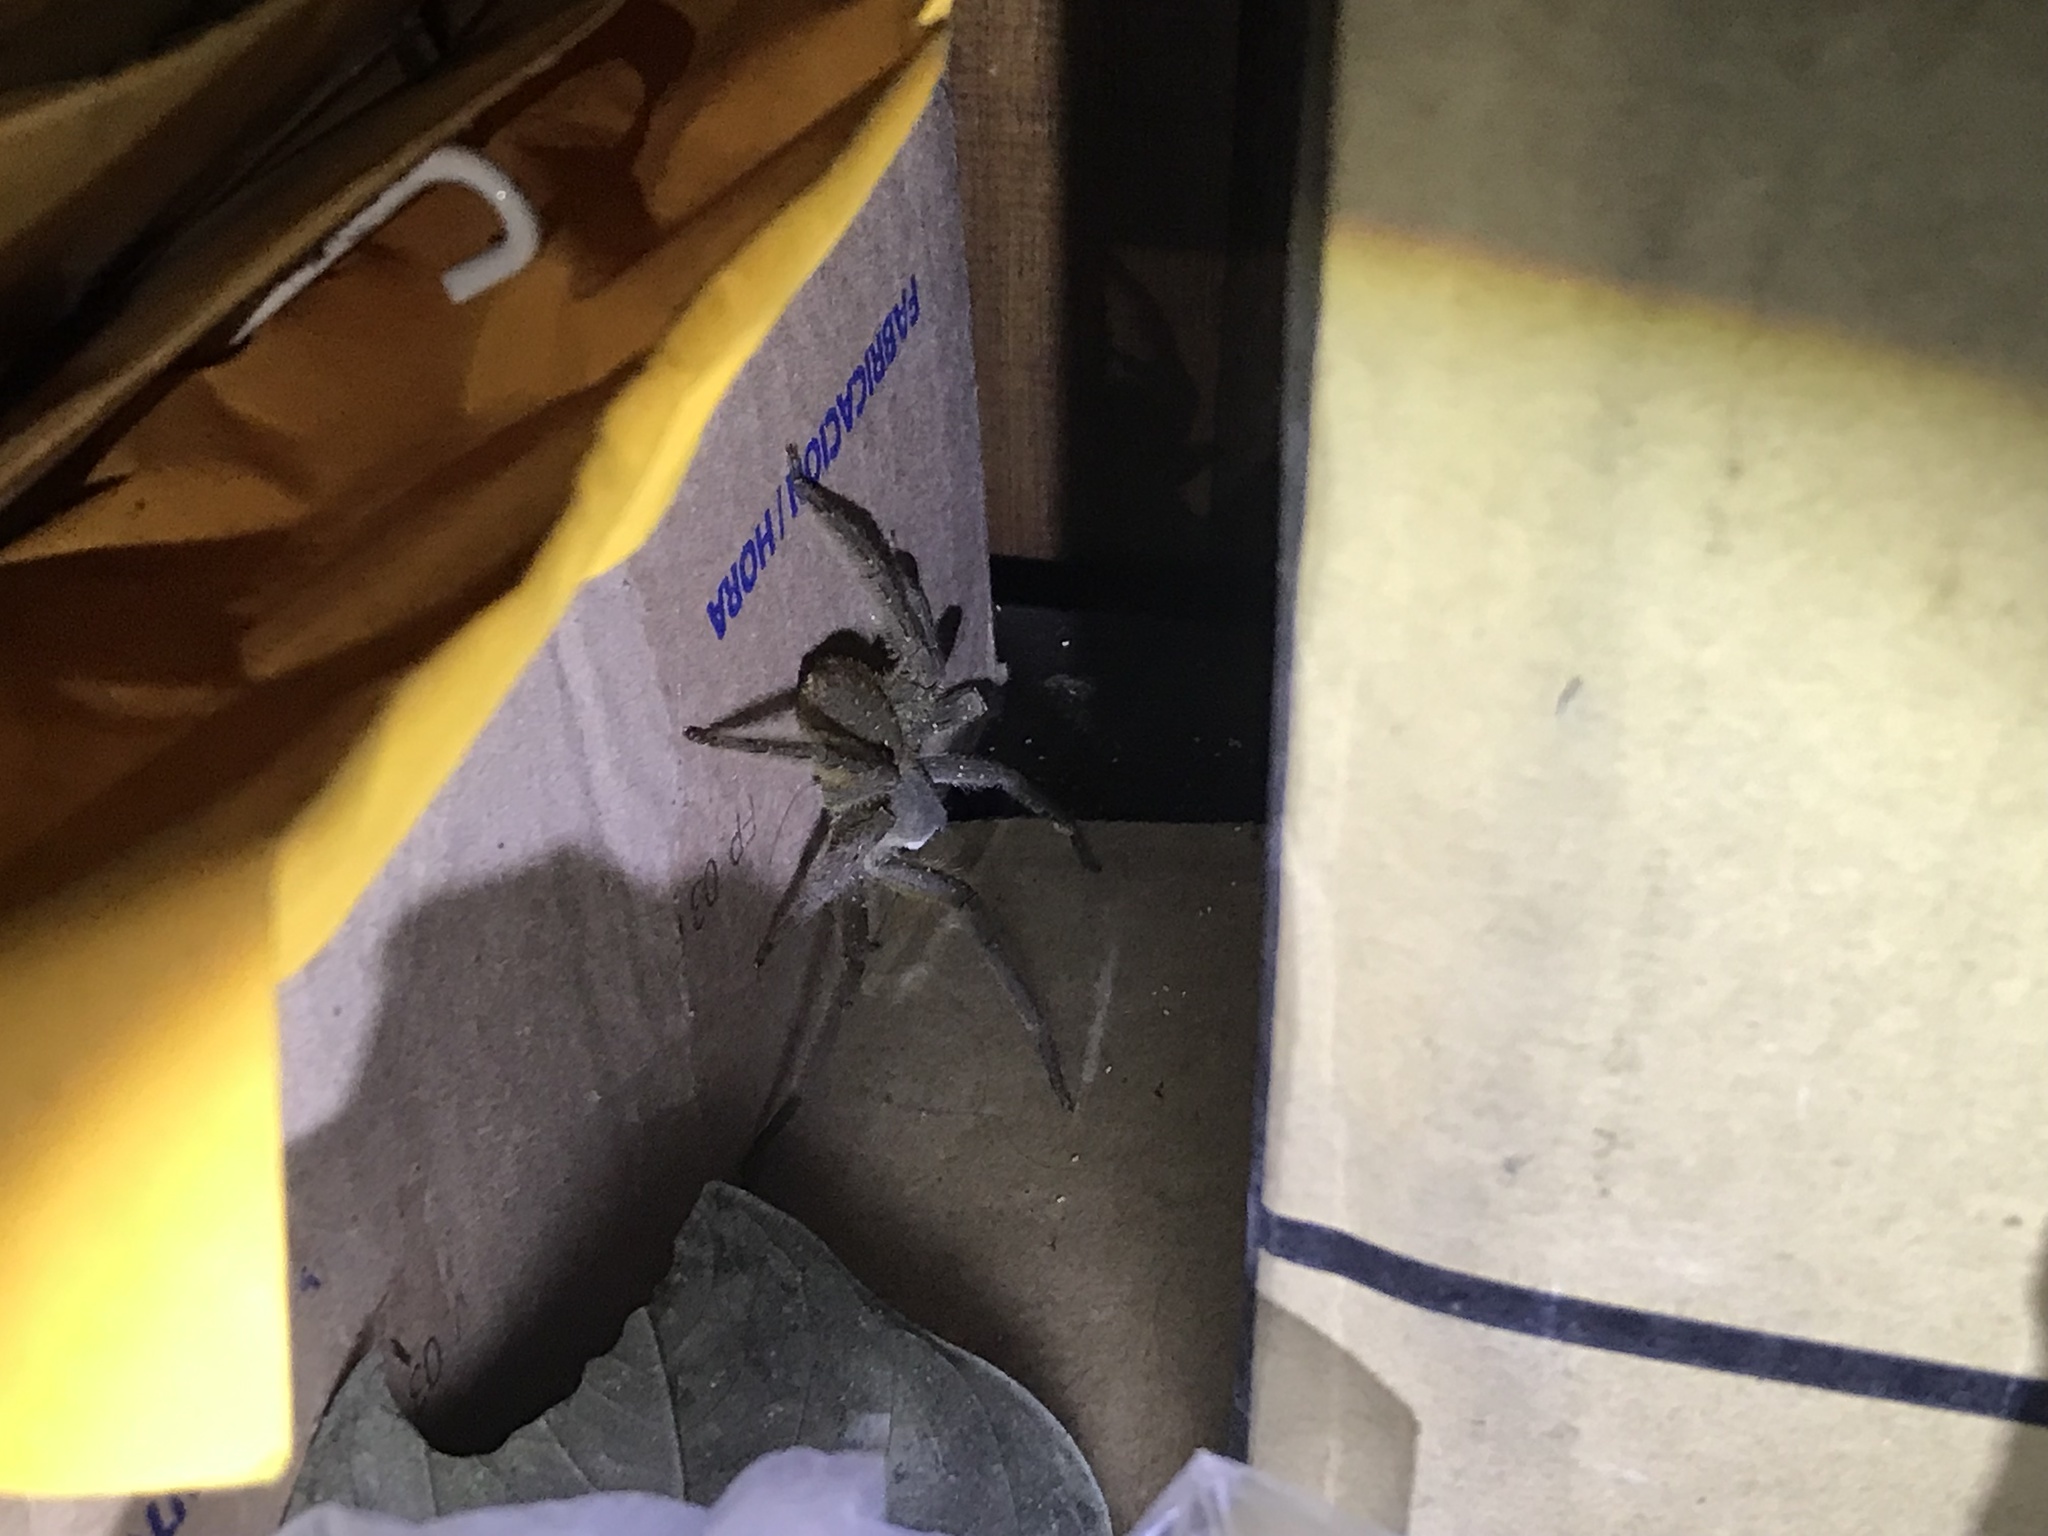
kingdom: Animalia
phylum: Arthropoda
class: Arachnida
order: Araneae
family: Ctenidae
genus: Phoneutria
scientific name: Phoneutria boliviensis
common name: Wandering spiders
